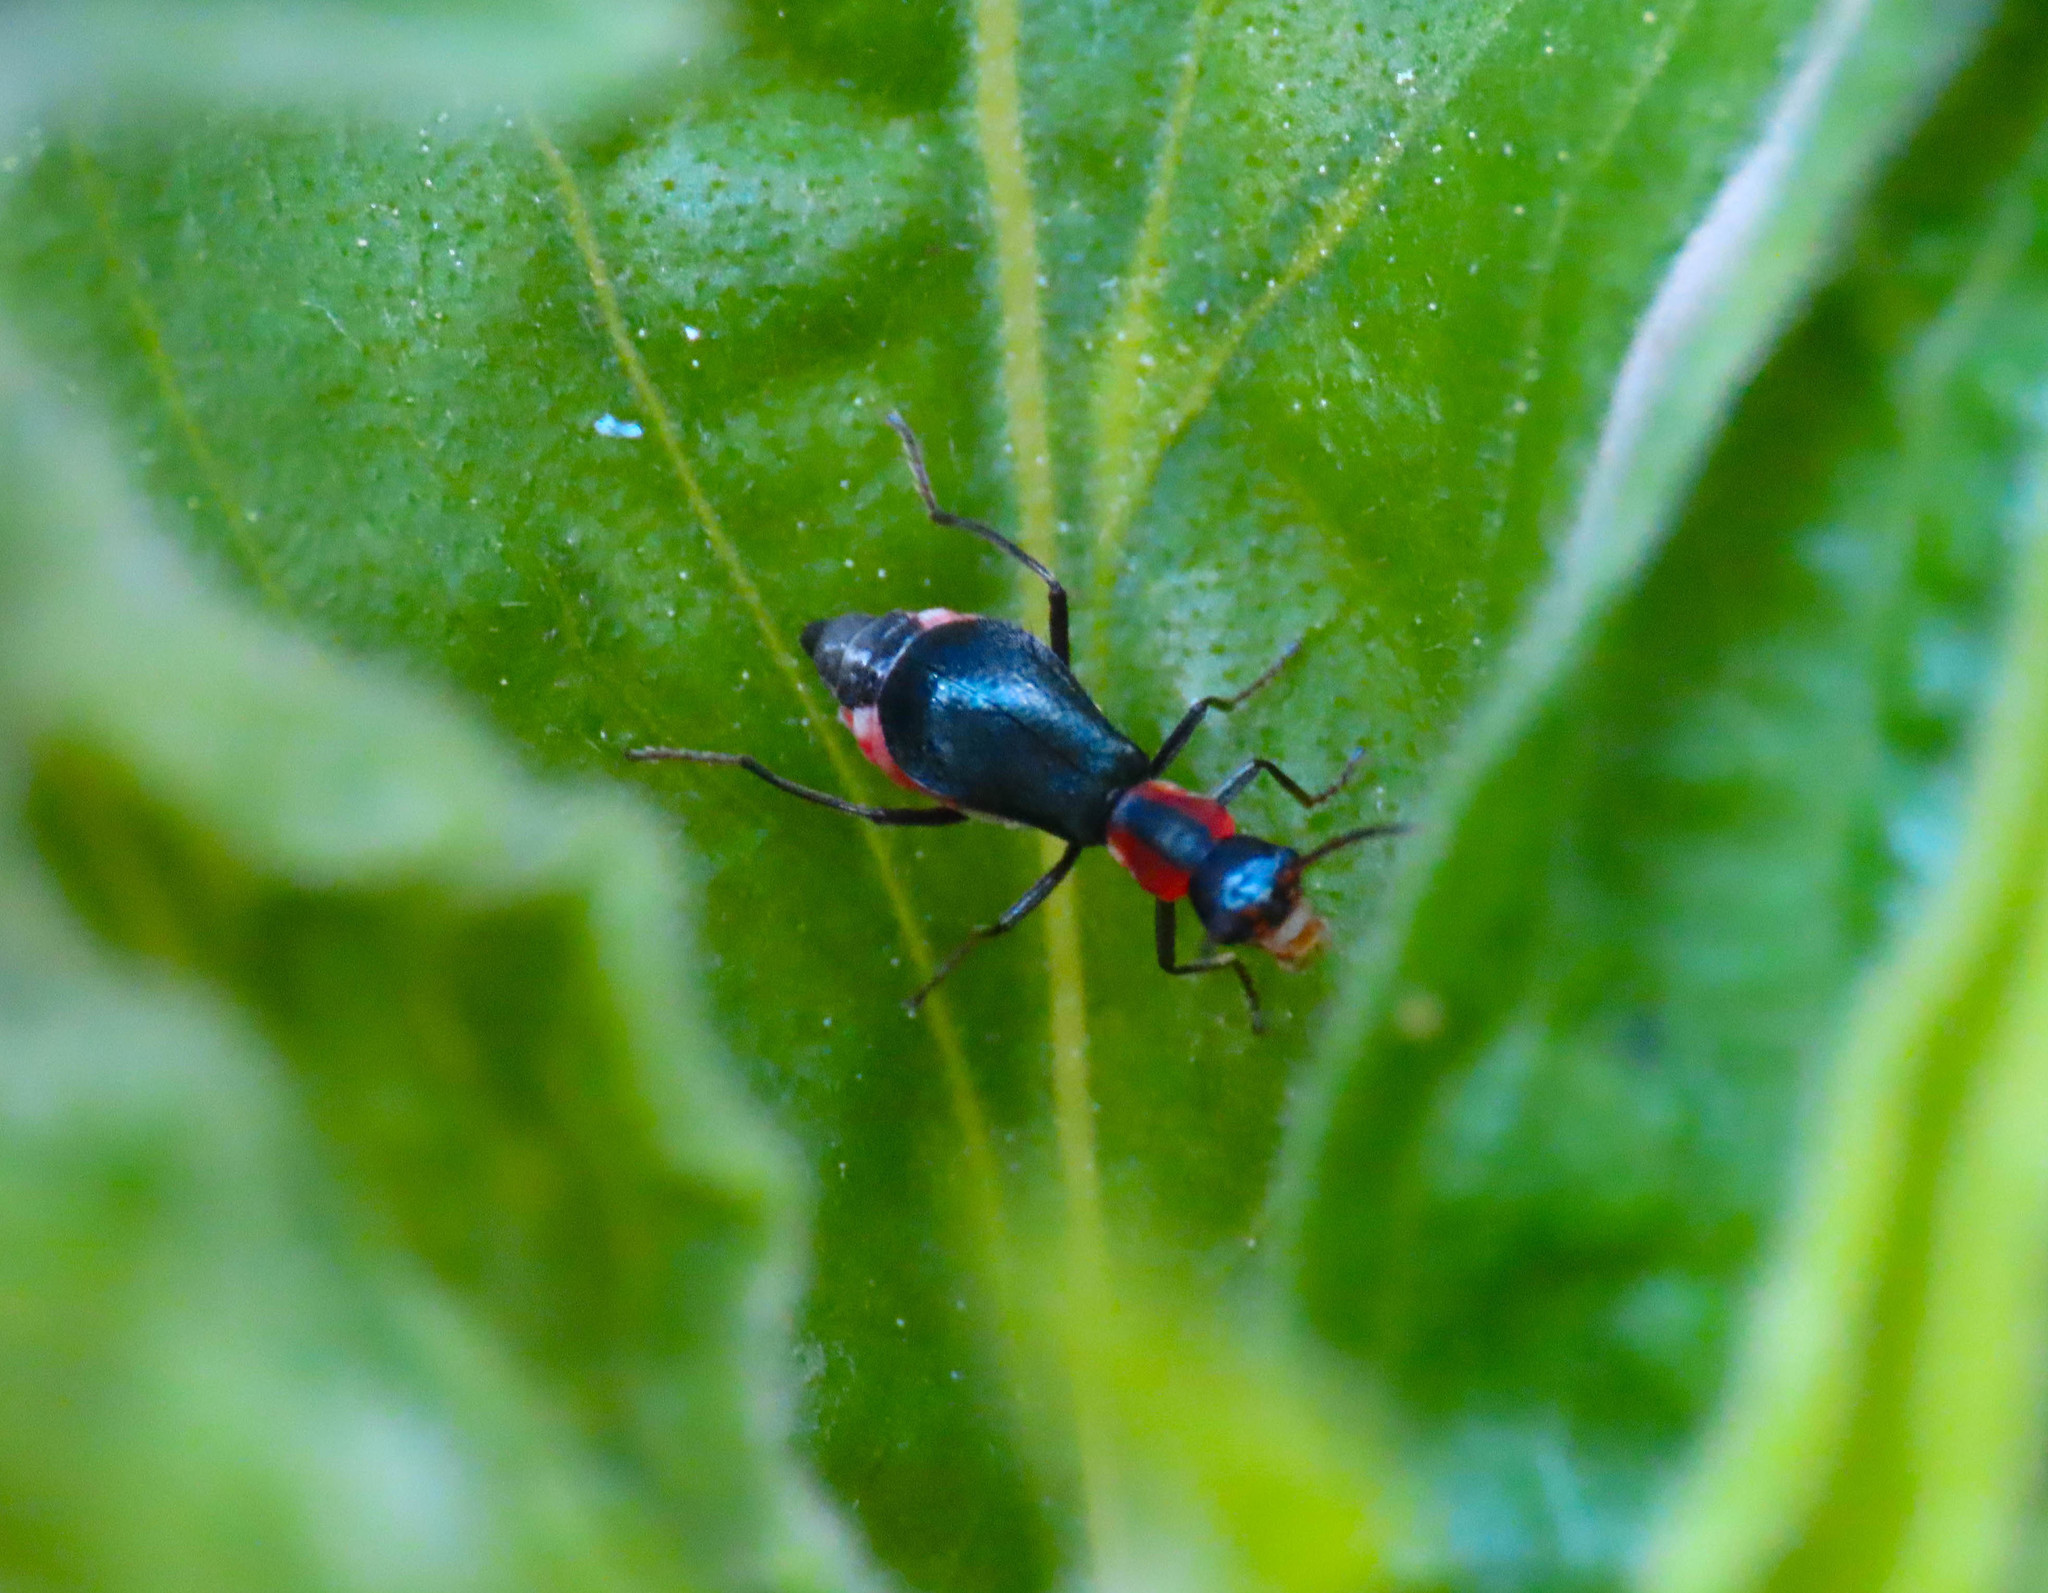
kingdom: Animalia
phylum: Arthropoda
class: Insecta
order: Coleoptera
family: Melyridae
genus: Cyrtosus
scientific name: Cyrtosus cyanipennis
